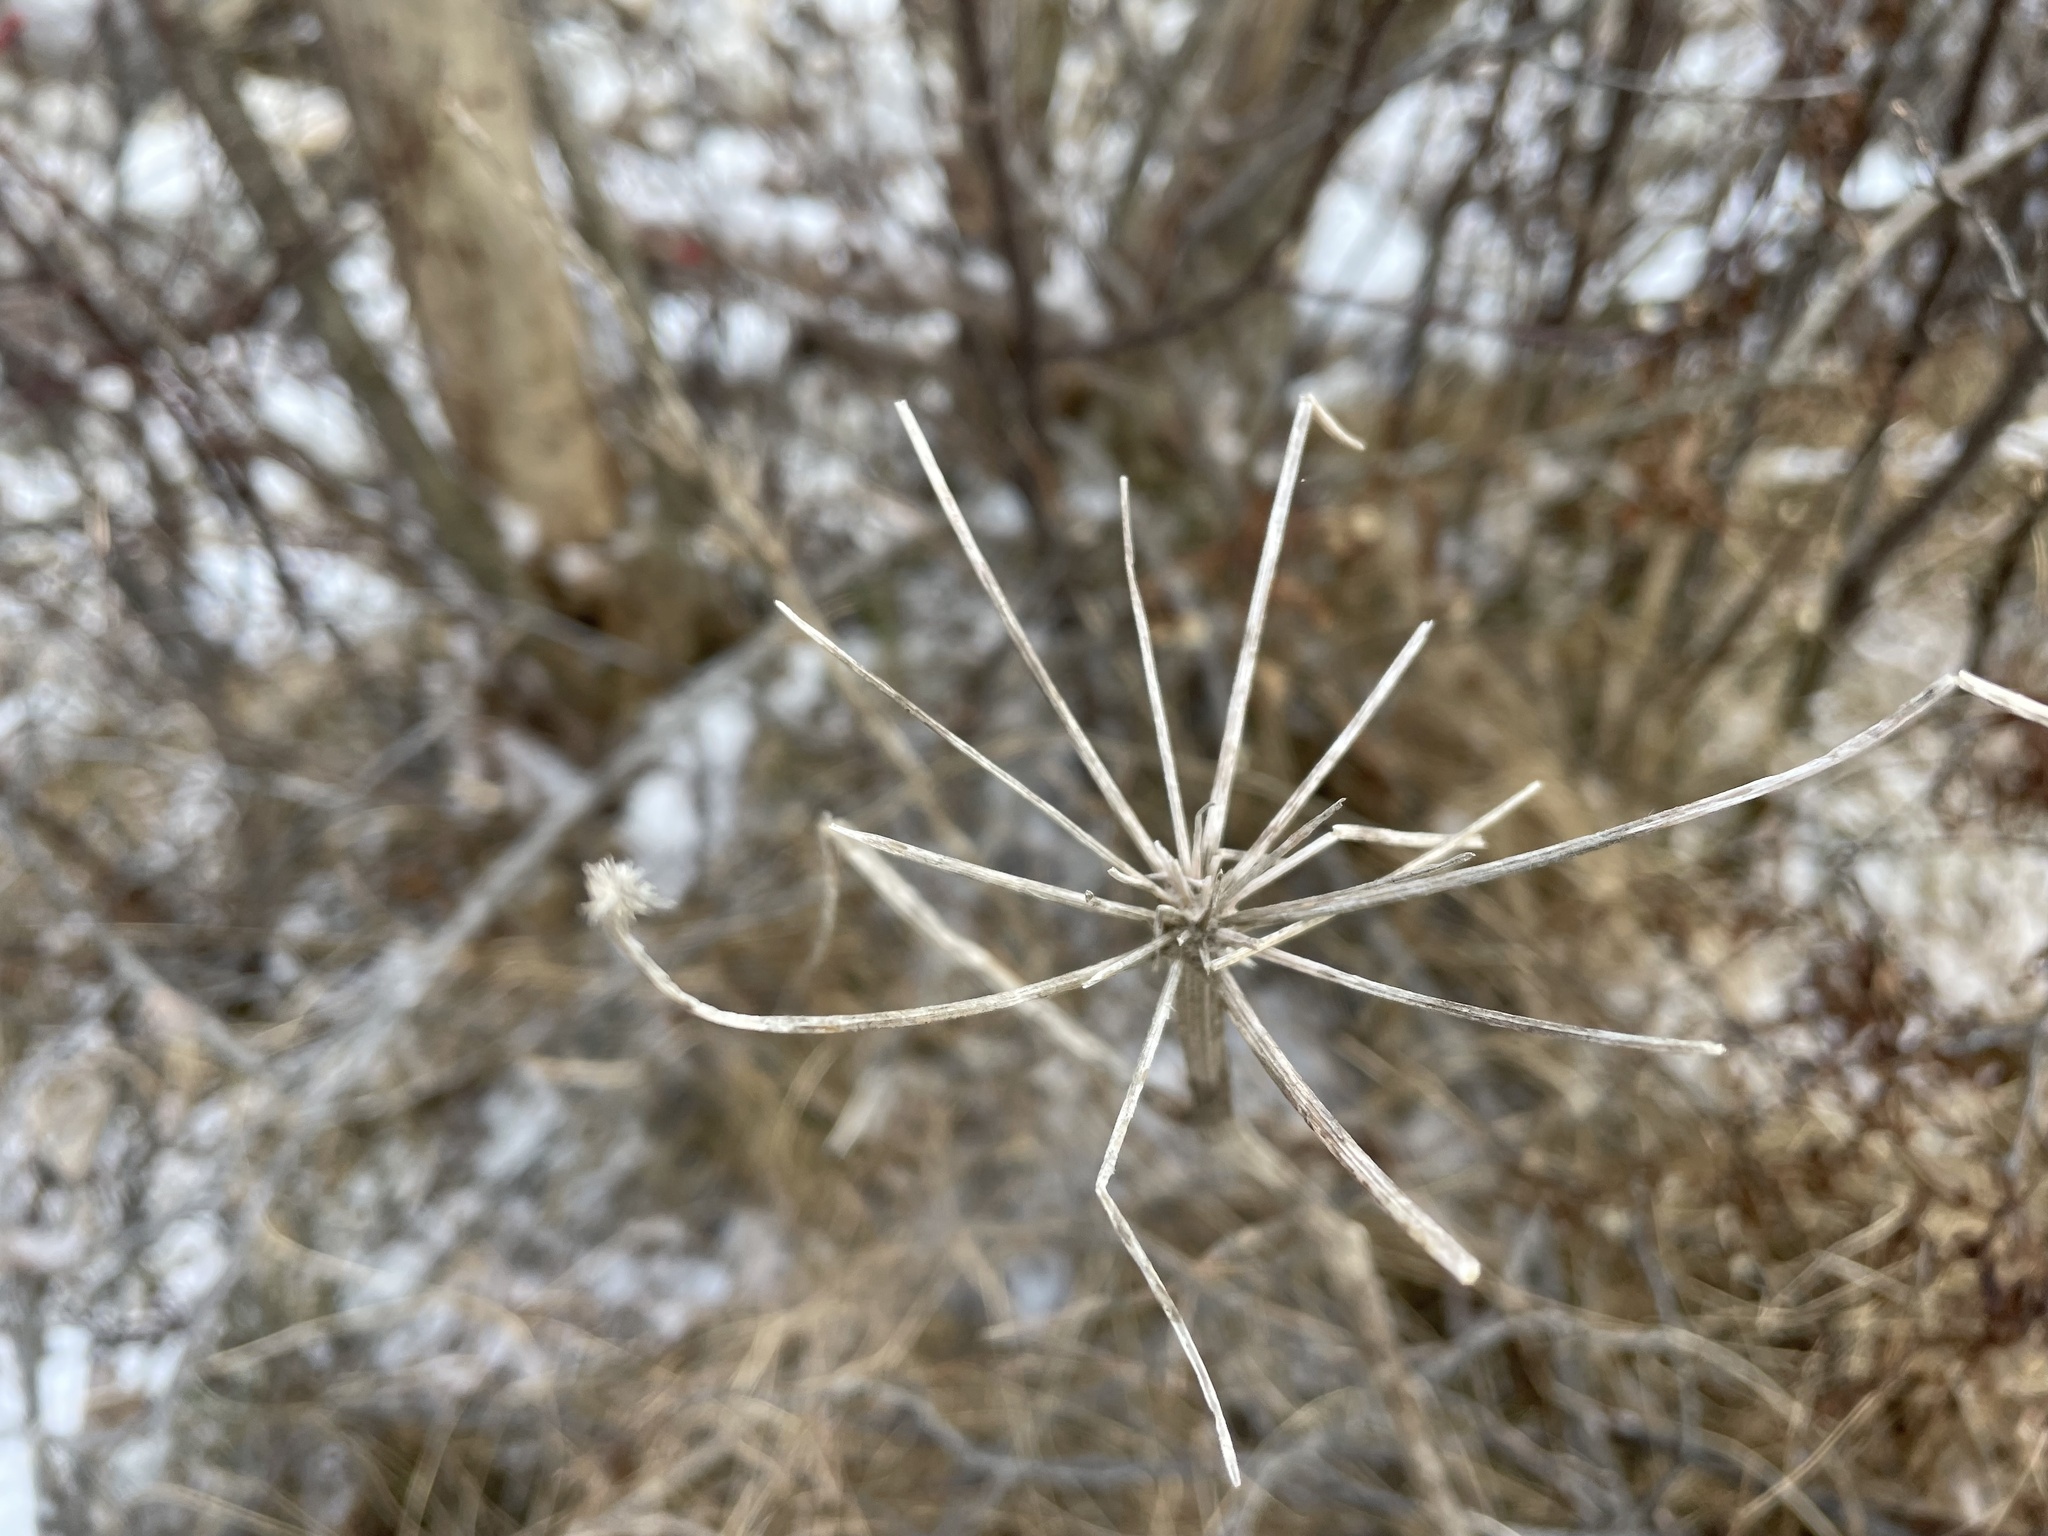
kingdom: Plantae
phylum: Tracheophyta
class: Magnoliopsida
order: Apiales
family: Apiaceae
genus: Heracleum
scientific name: Heracleum maximum
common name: American cow parsnip
